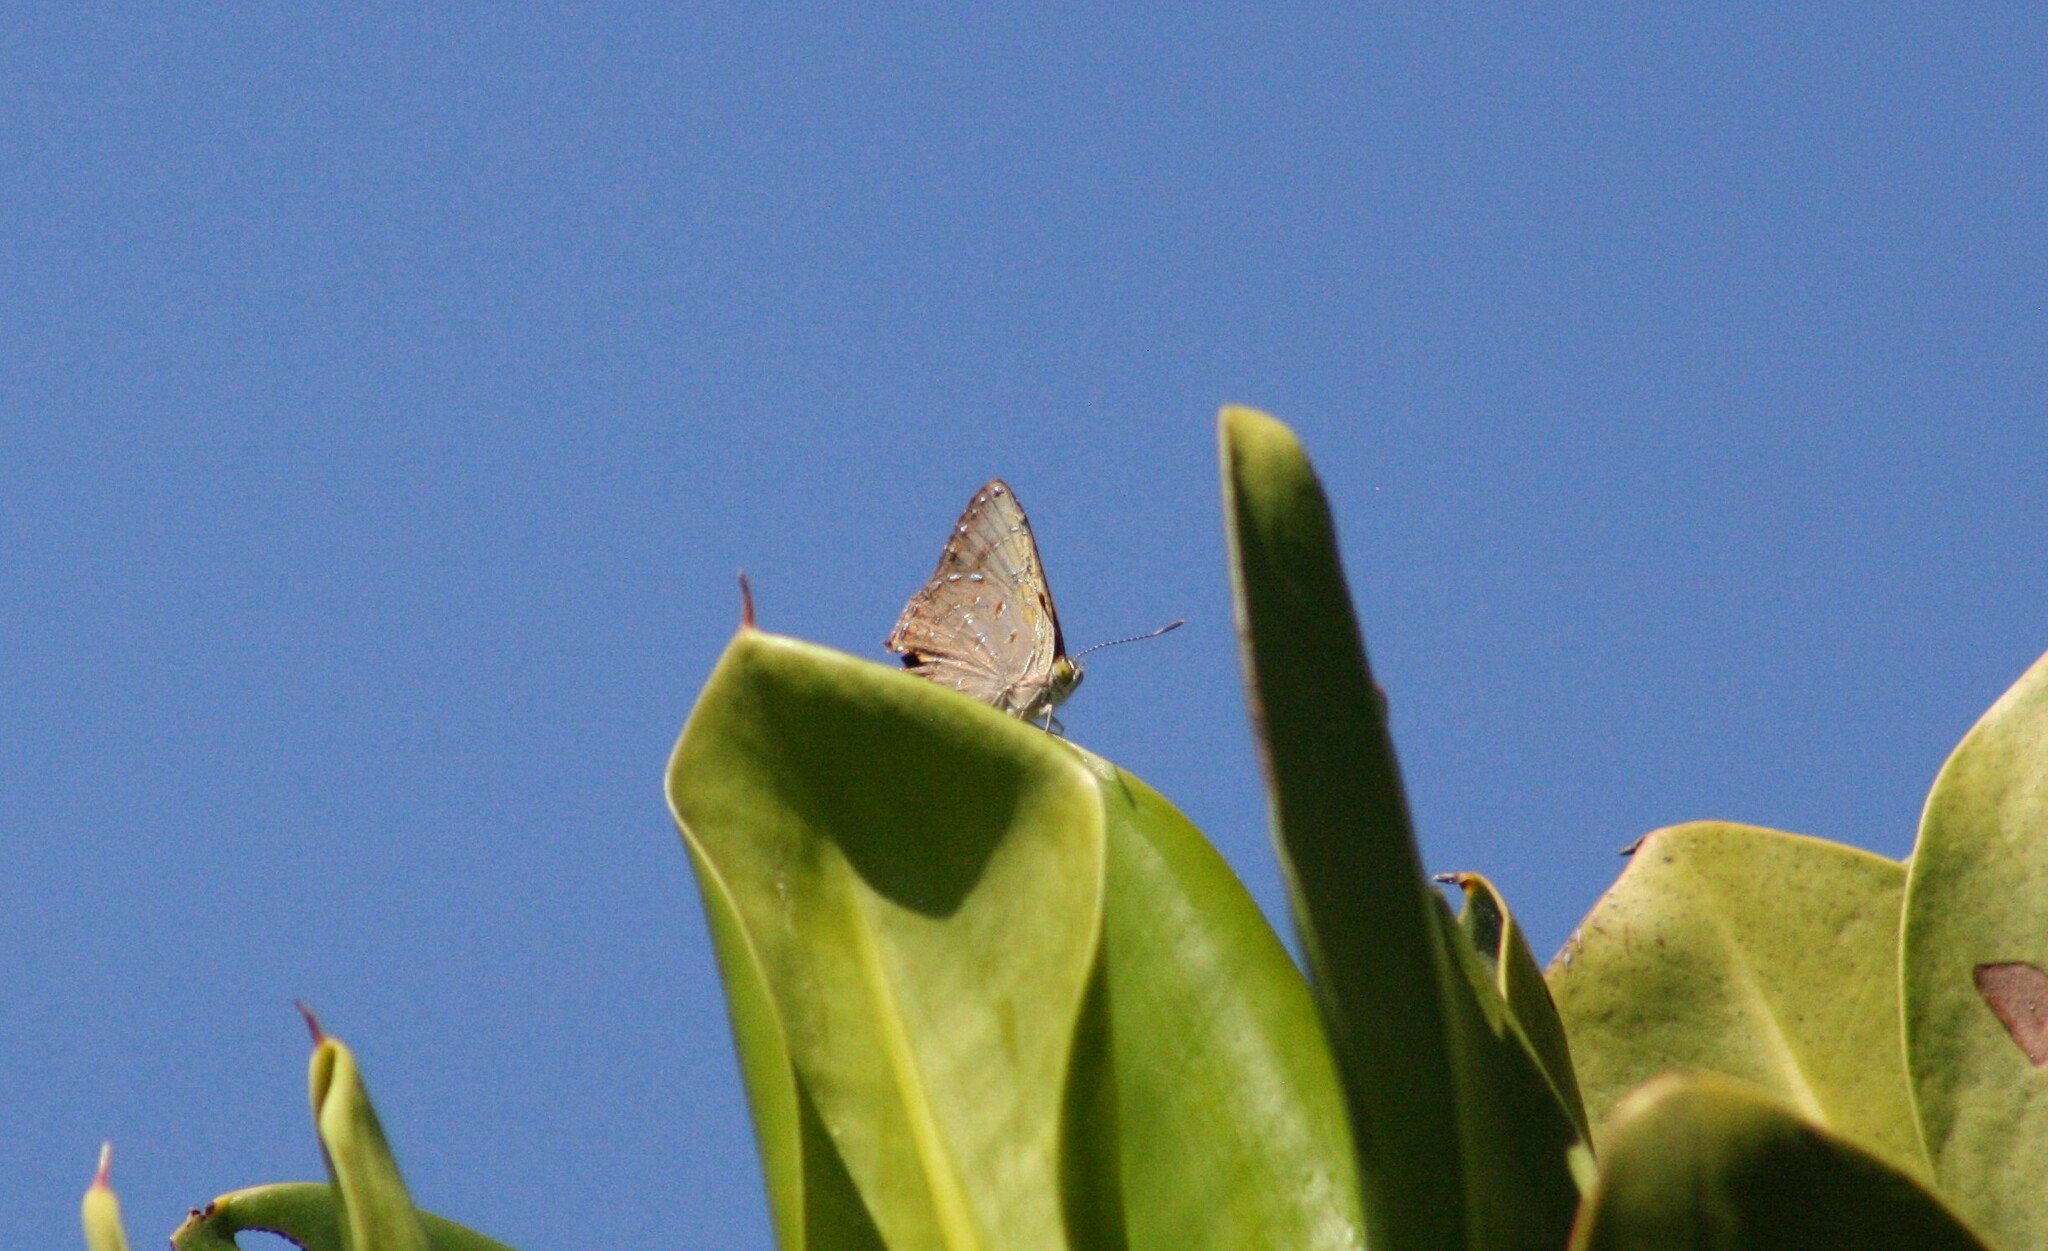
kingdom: Animalia
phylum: Arthropoda
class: Insecta
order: Lepidoptera
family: Lycaenidae
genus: Hypochrysops
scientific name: Hypochrysops epicurus
